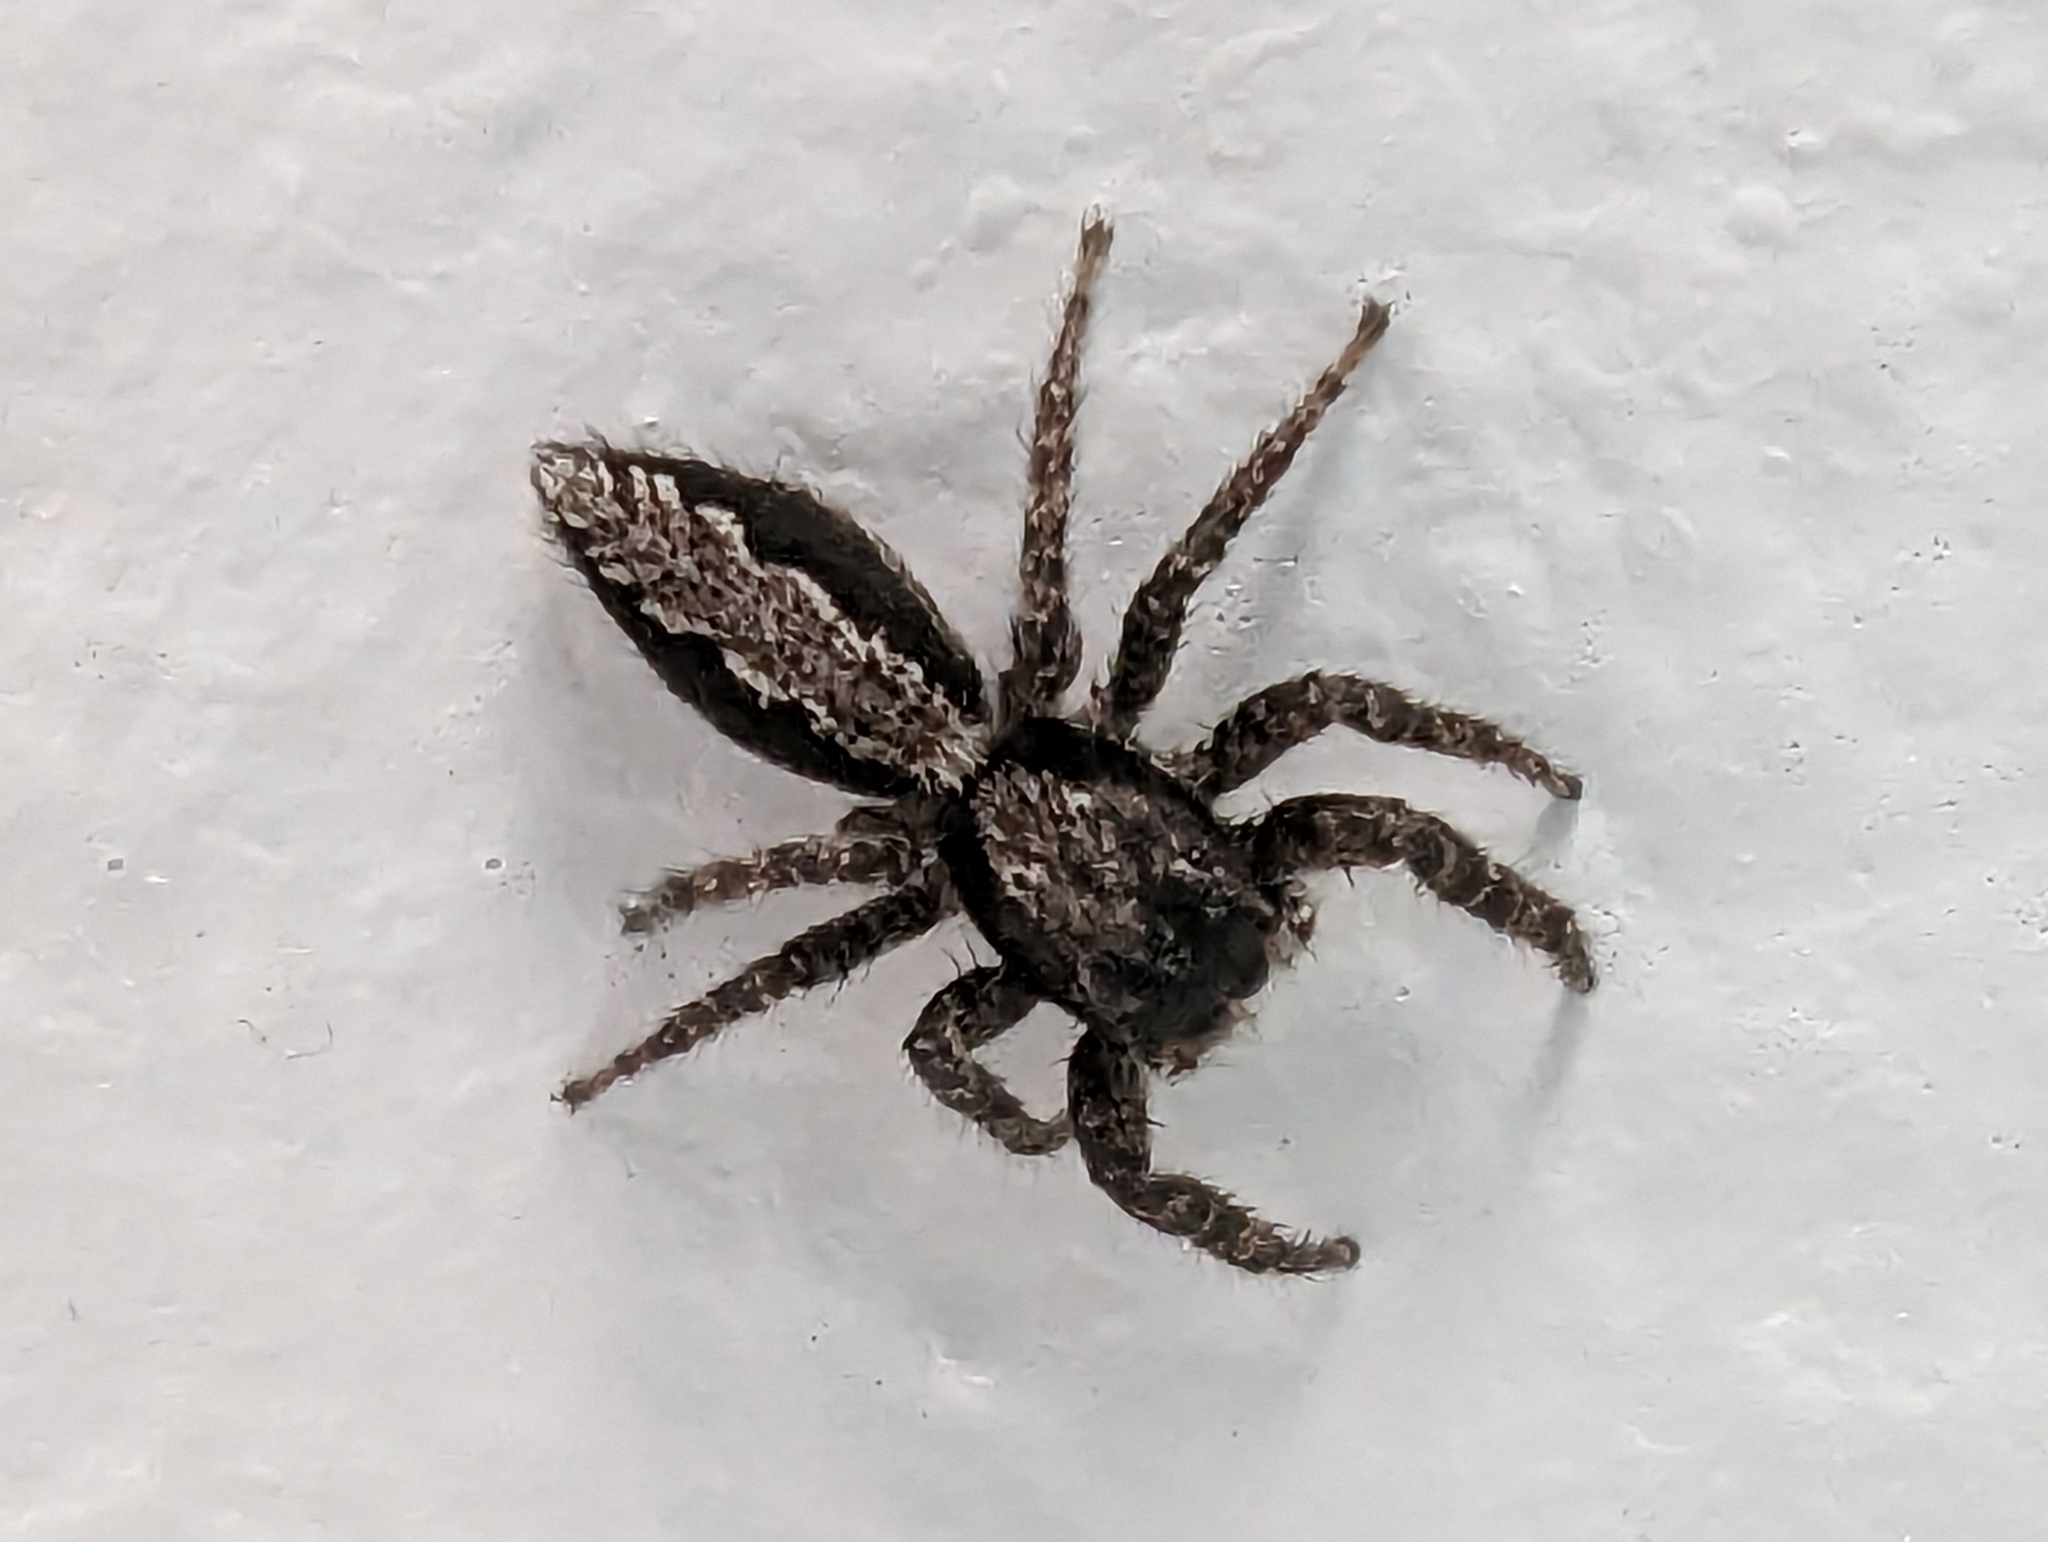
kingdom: Animalia
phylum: Arthropoda
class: Arachnida
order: Araneae
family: Salticidae
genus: Platycryptus
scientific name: Platycryptus californicus
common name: Jumping spiders
